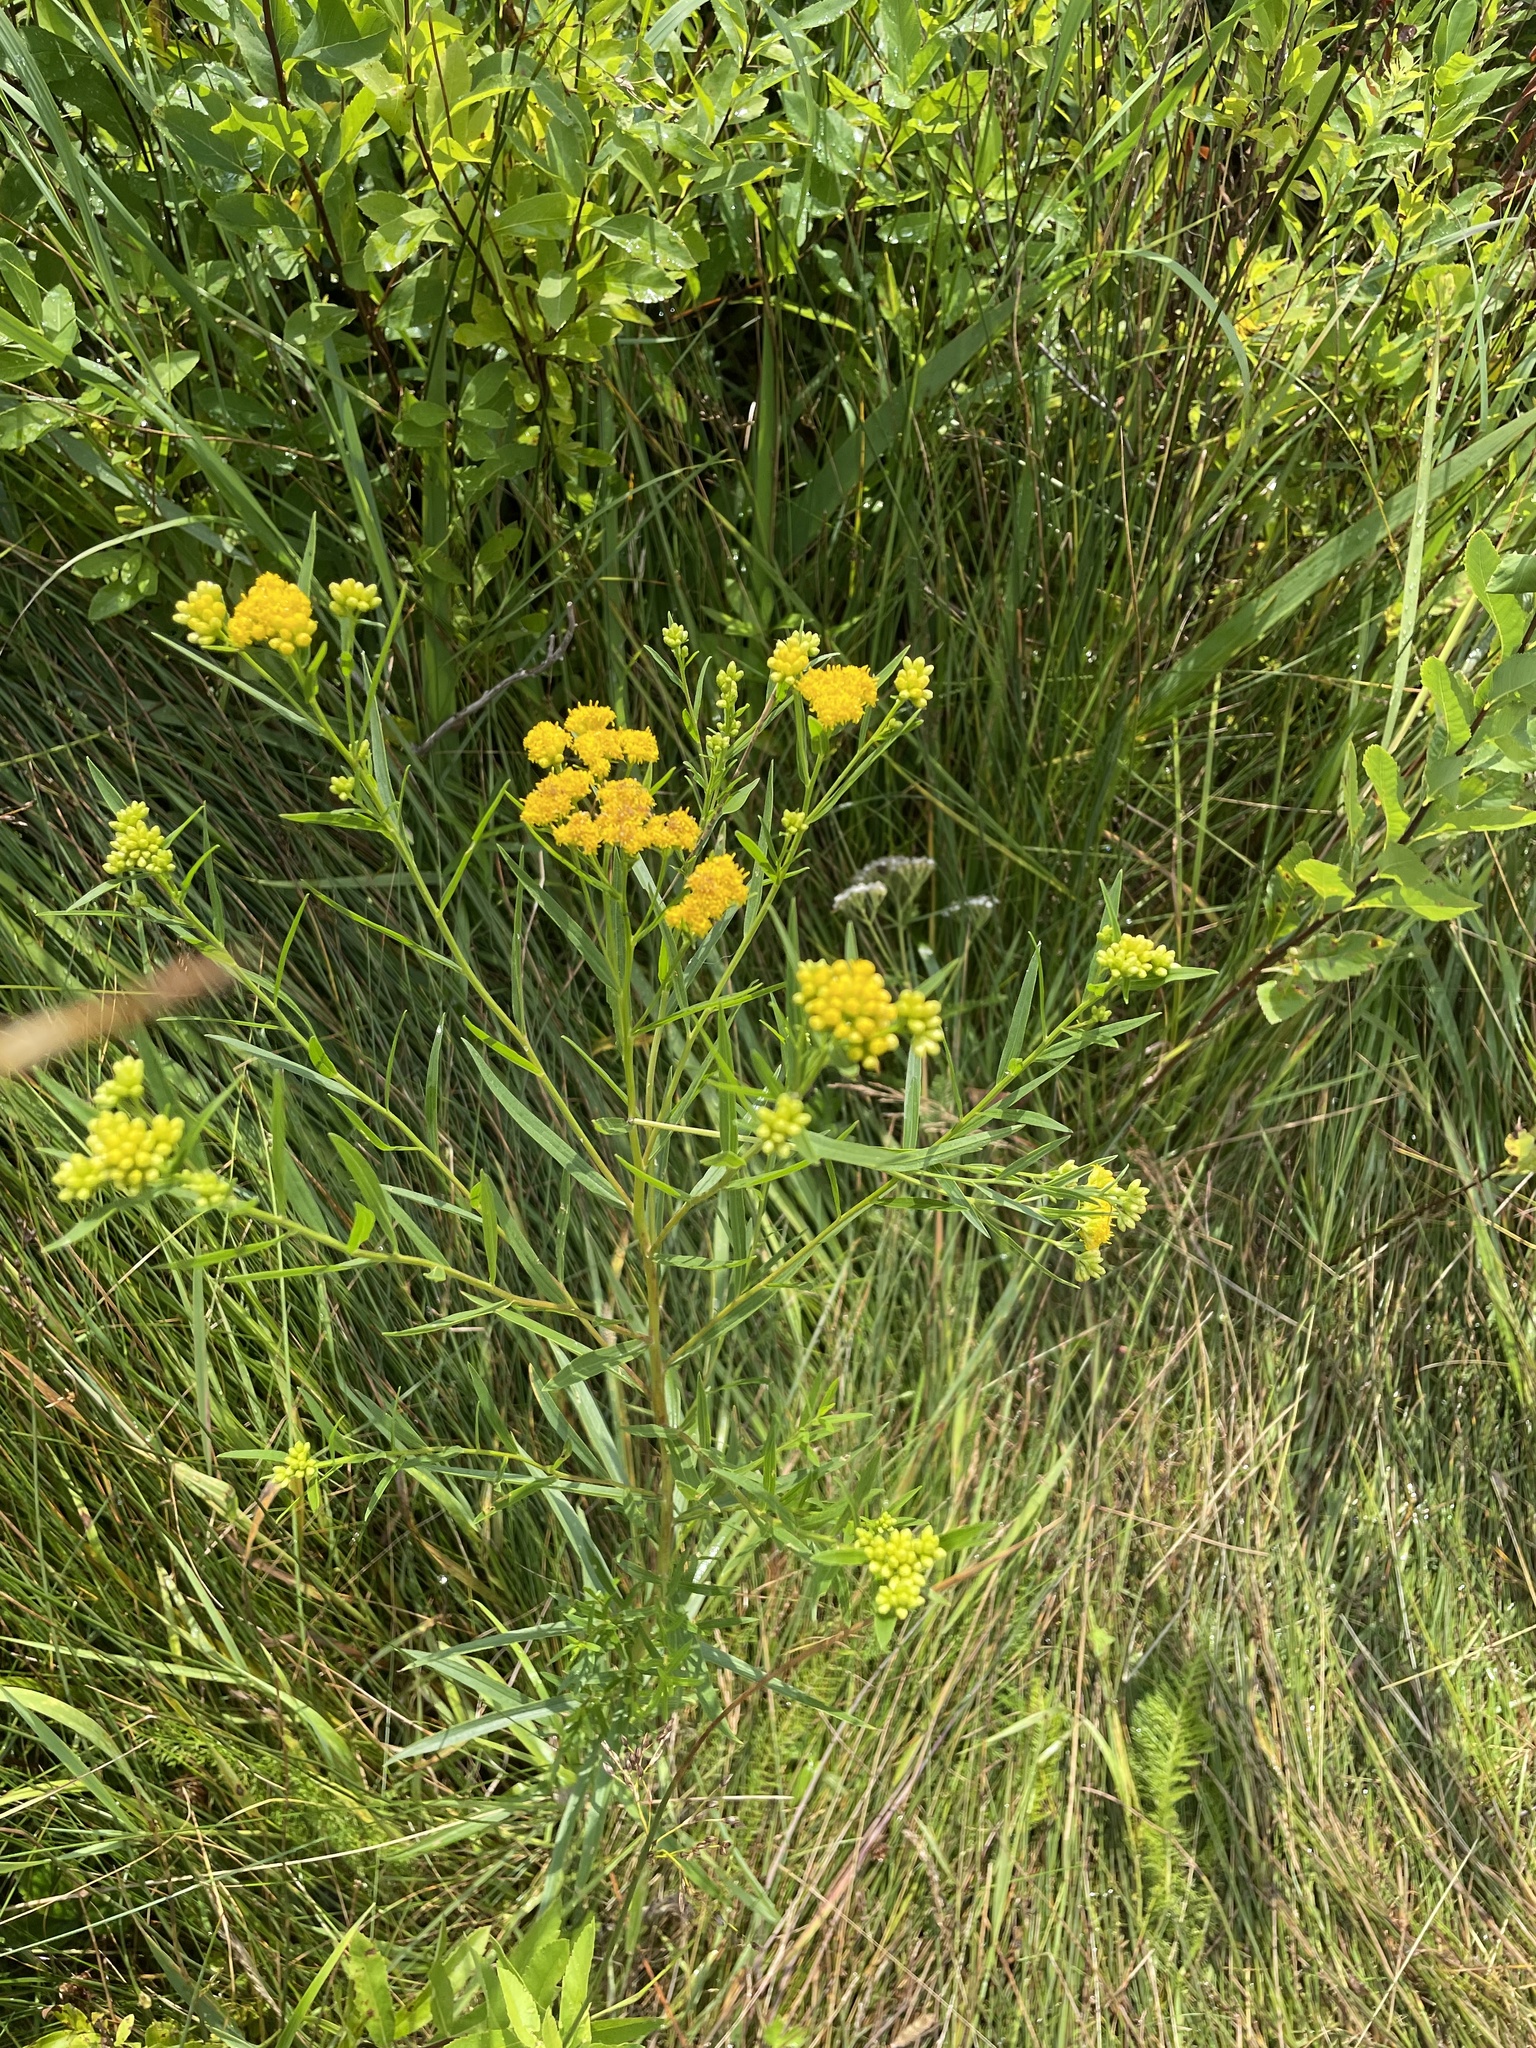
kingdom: Plantae
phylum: Tracheophyta
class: Magnoliopsida
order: Asterales
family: Asteraceae
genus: Euthamia
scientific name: Euthamia graminifolia
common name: Common goldentop
